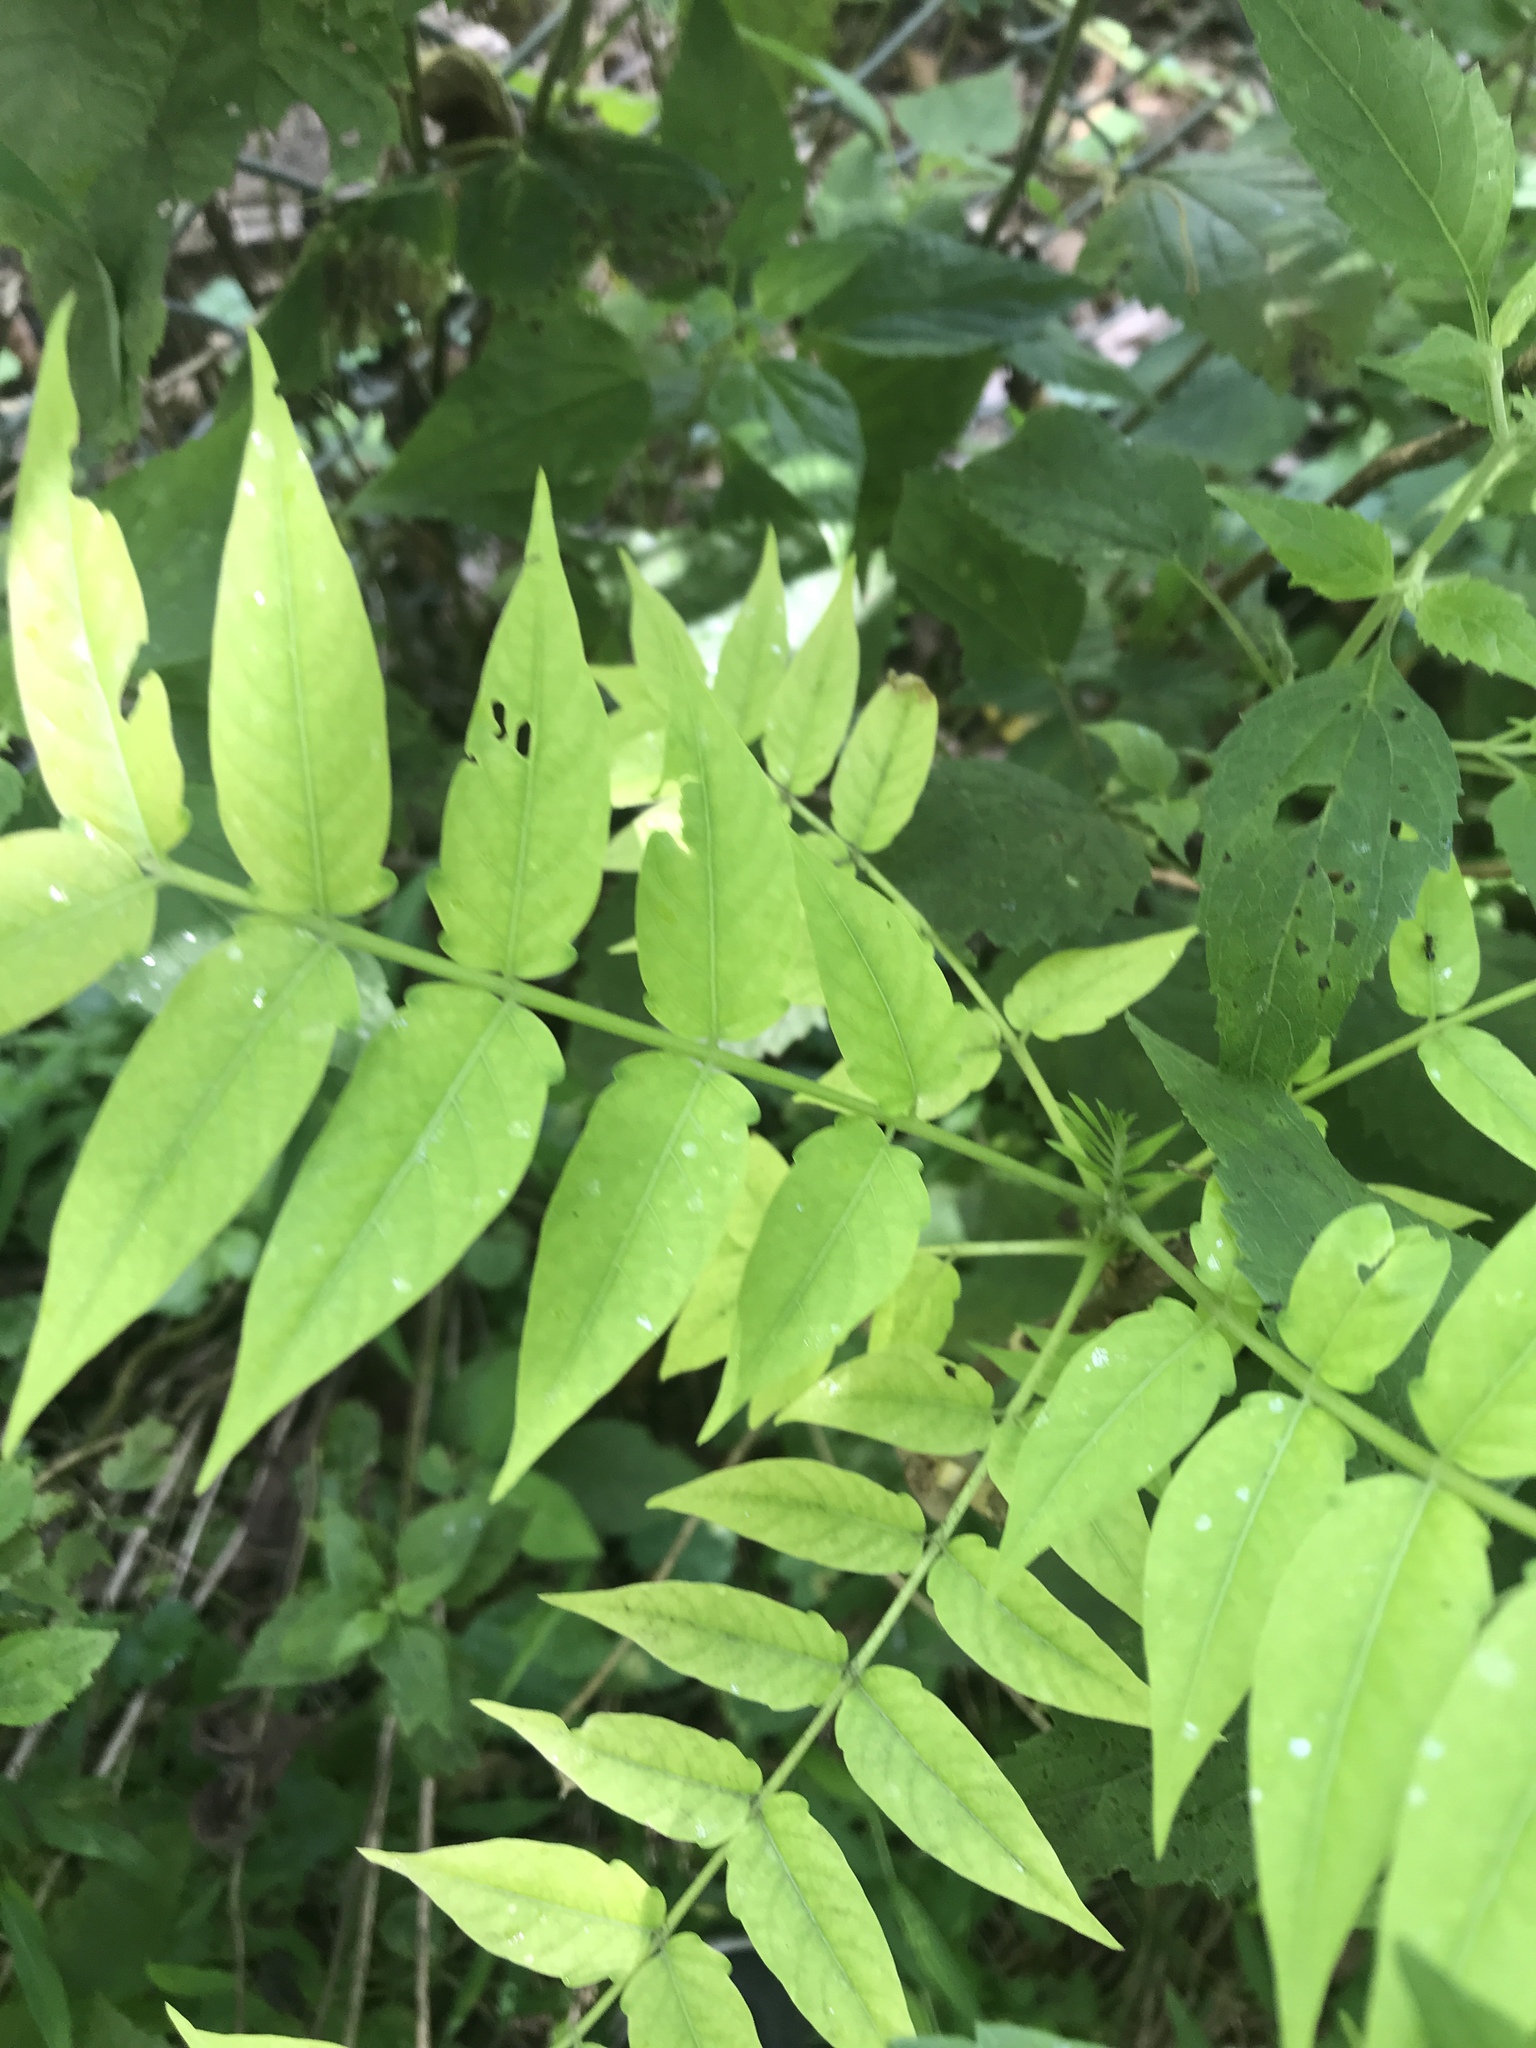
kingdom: Plantae
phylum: Tracheophyta
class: Magnoliopsida
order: Sapindales
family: Simaroubaceae
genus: Ailanthus
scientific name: Ailanthus altissima
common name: Tree-of-heaven
